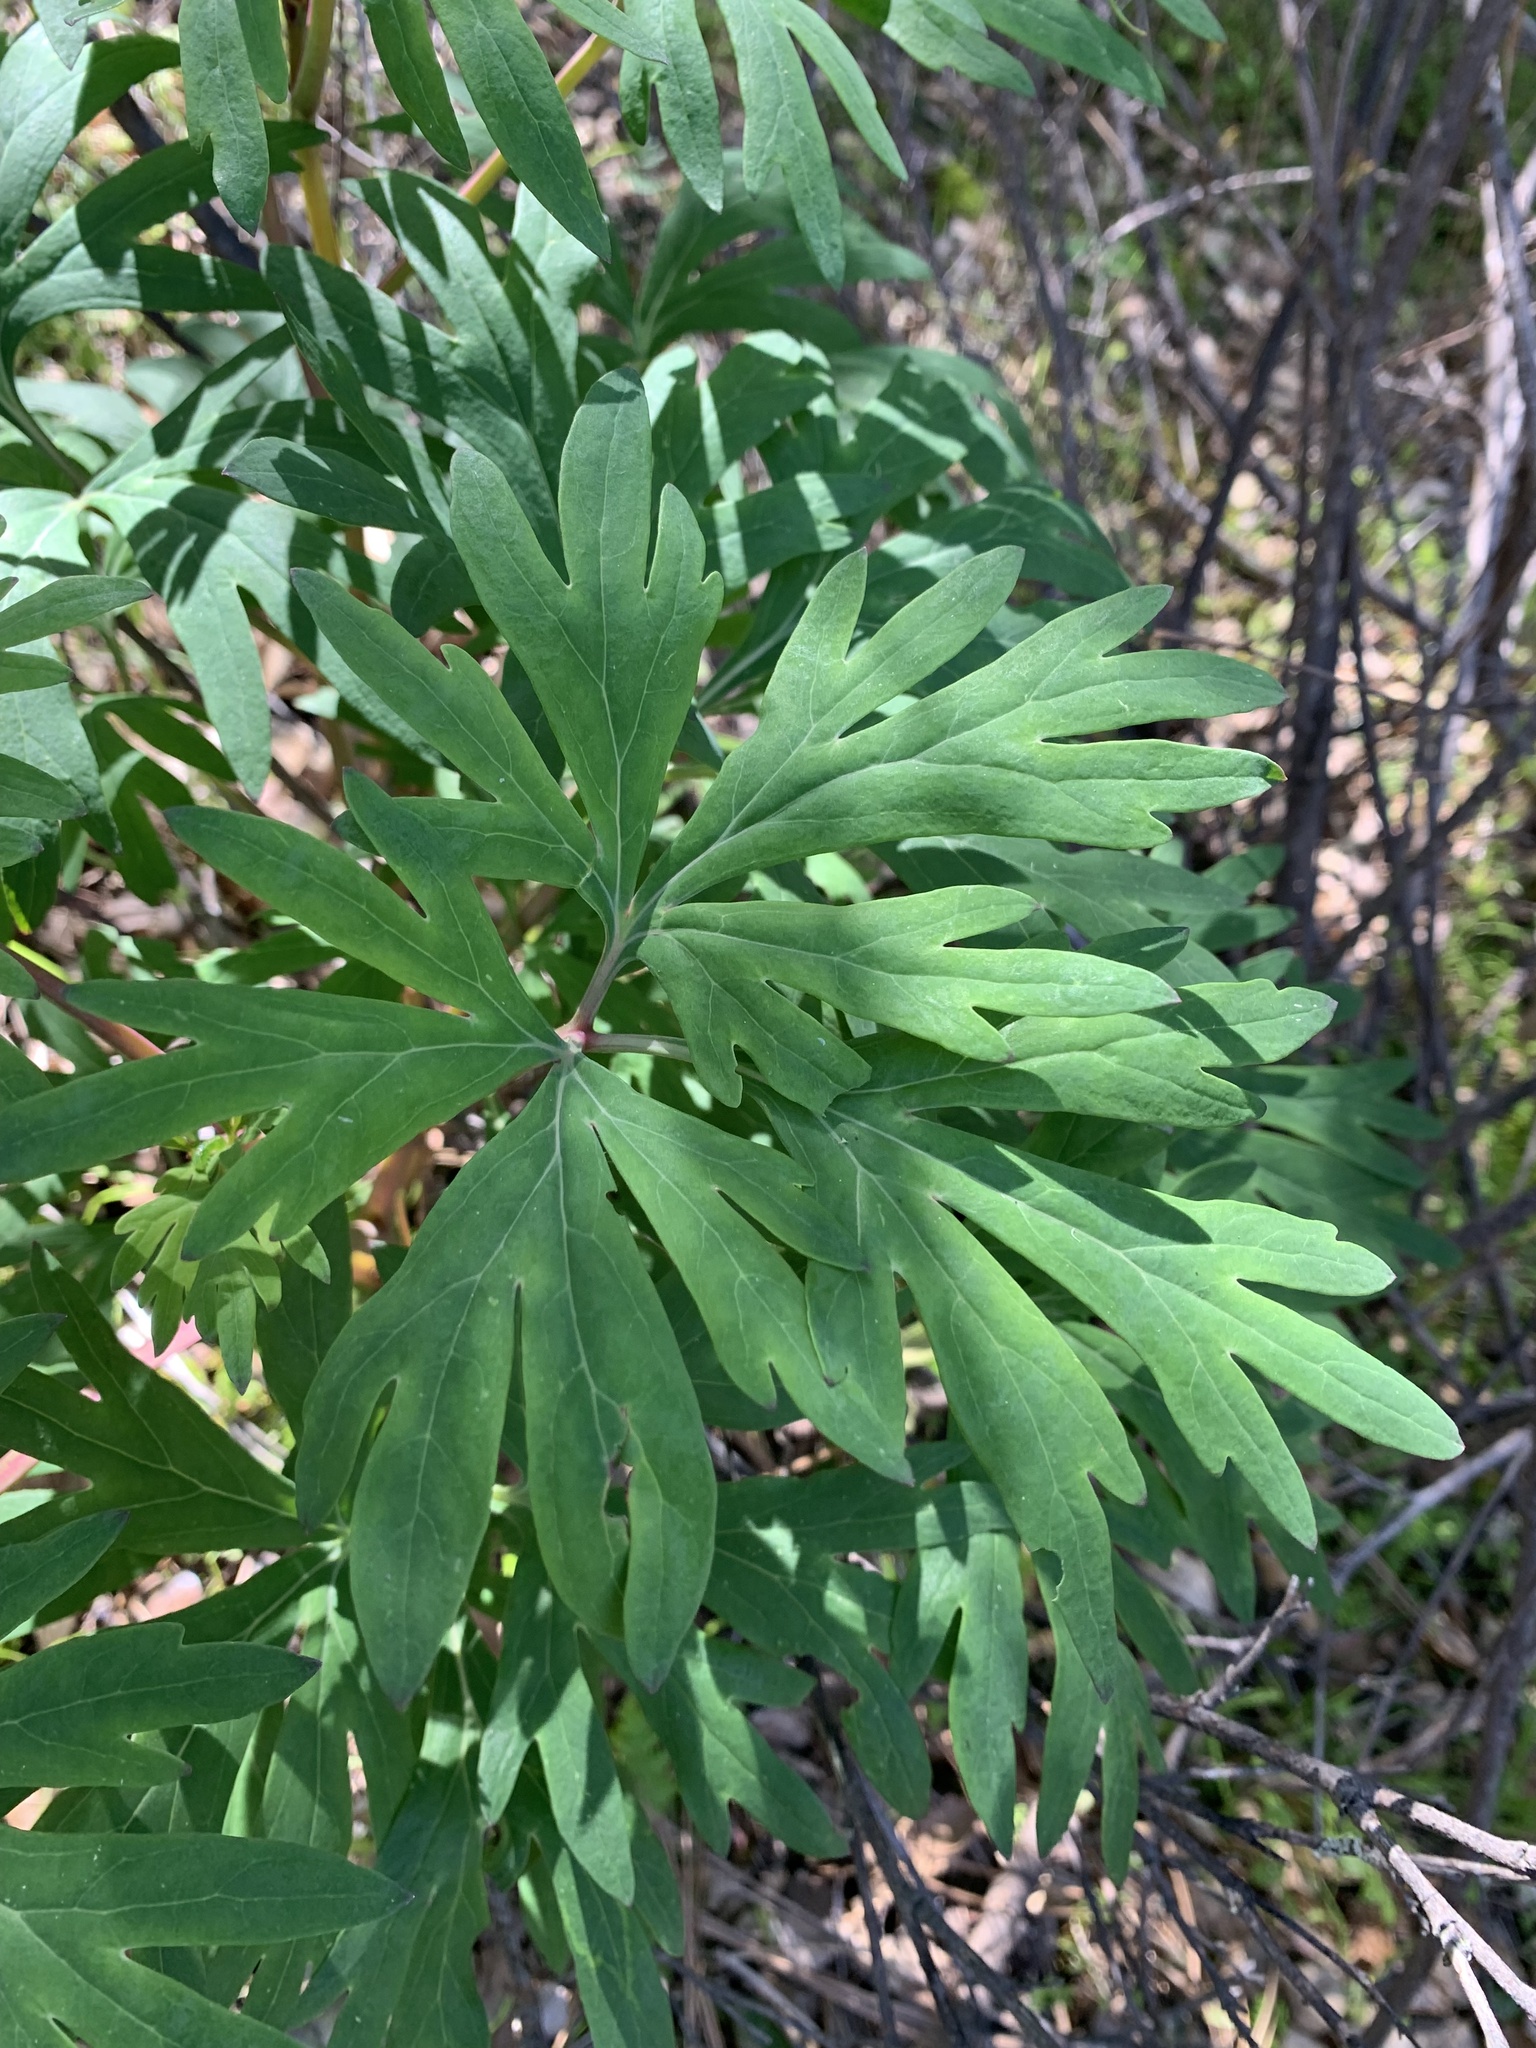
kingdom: Plantae
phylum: Tracheophyta
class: Magnoliopsida
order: Saxifragales
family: Paeoniaceae
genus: Paeonia
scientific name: Paeonia californica
